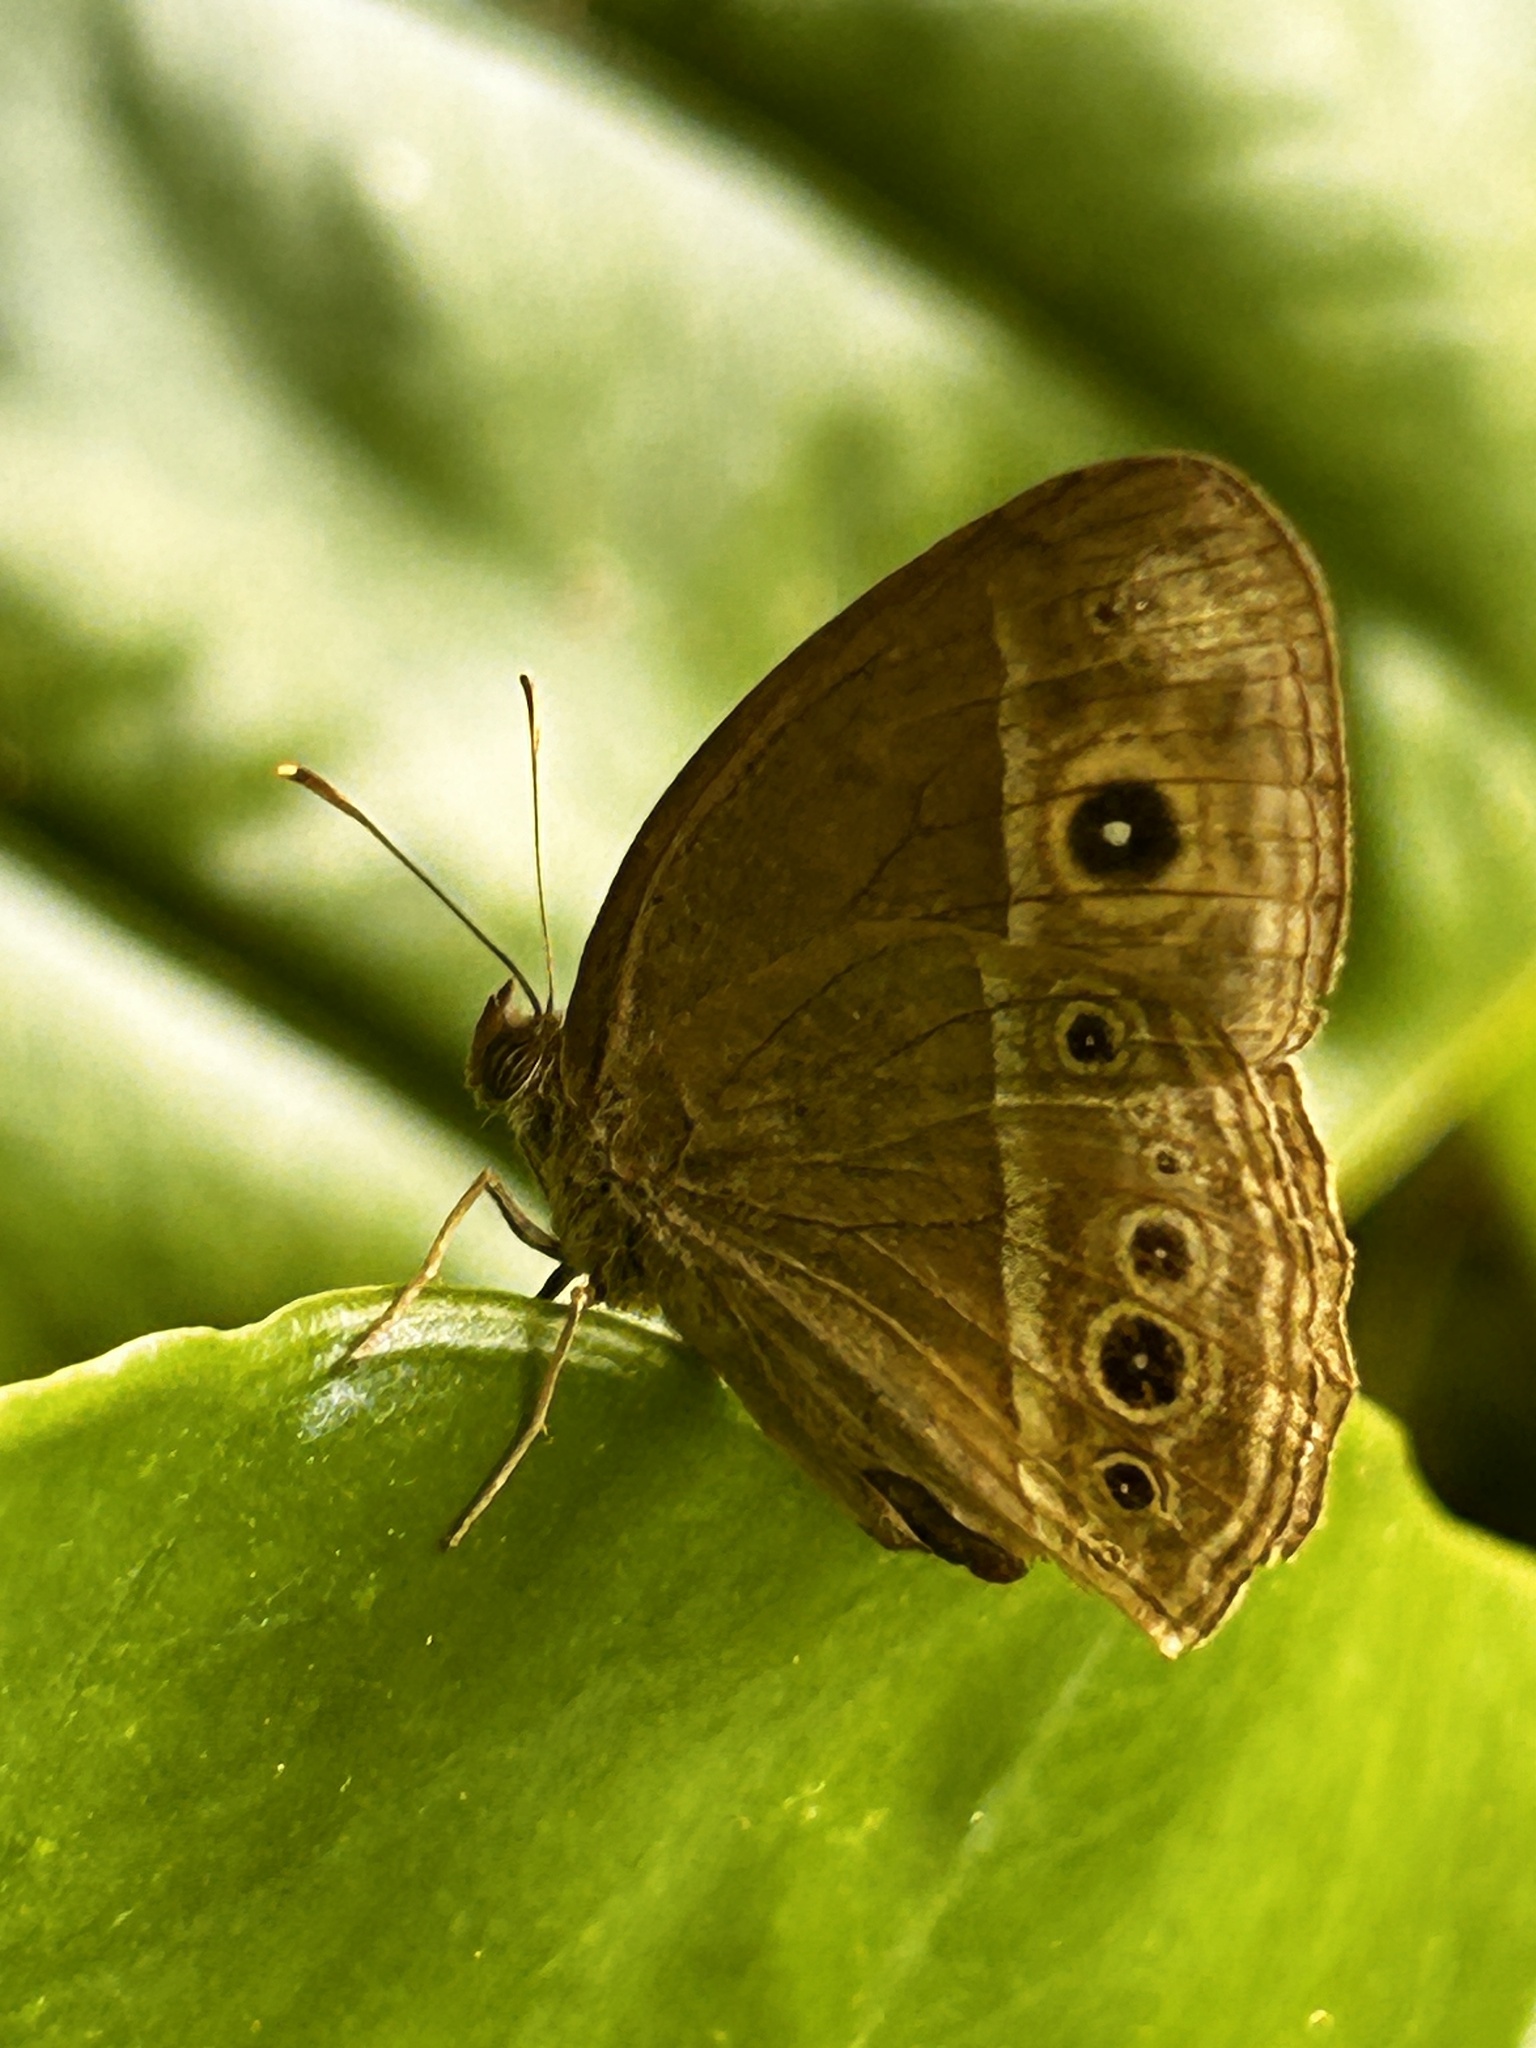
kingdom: Animalia
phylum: Arthropoda
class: Insecta
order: Lepidoptera
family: Nymphalidae
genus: Mycalesis
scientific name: Mycalesis mineus
